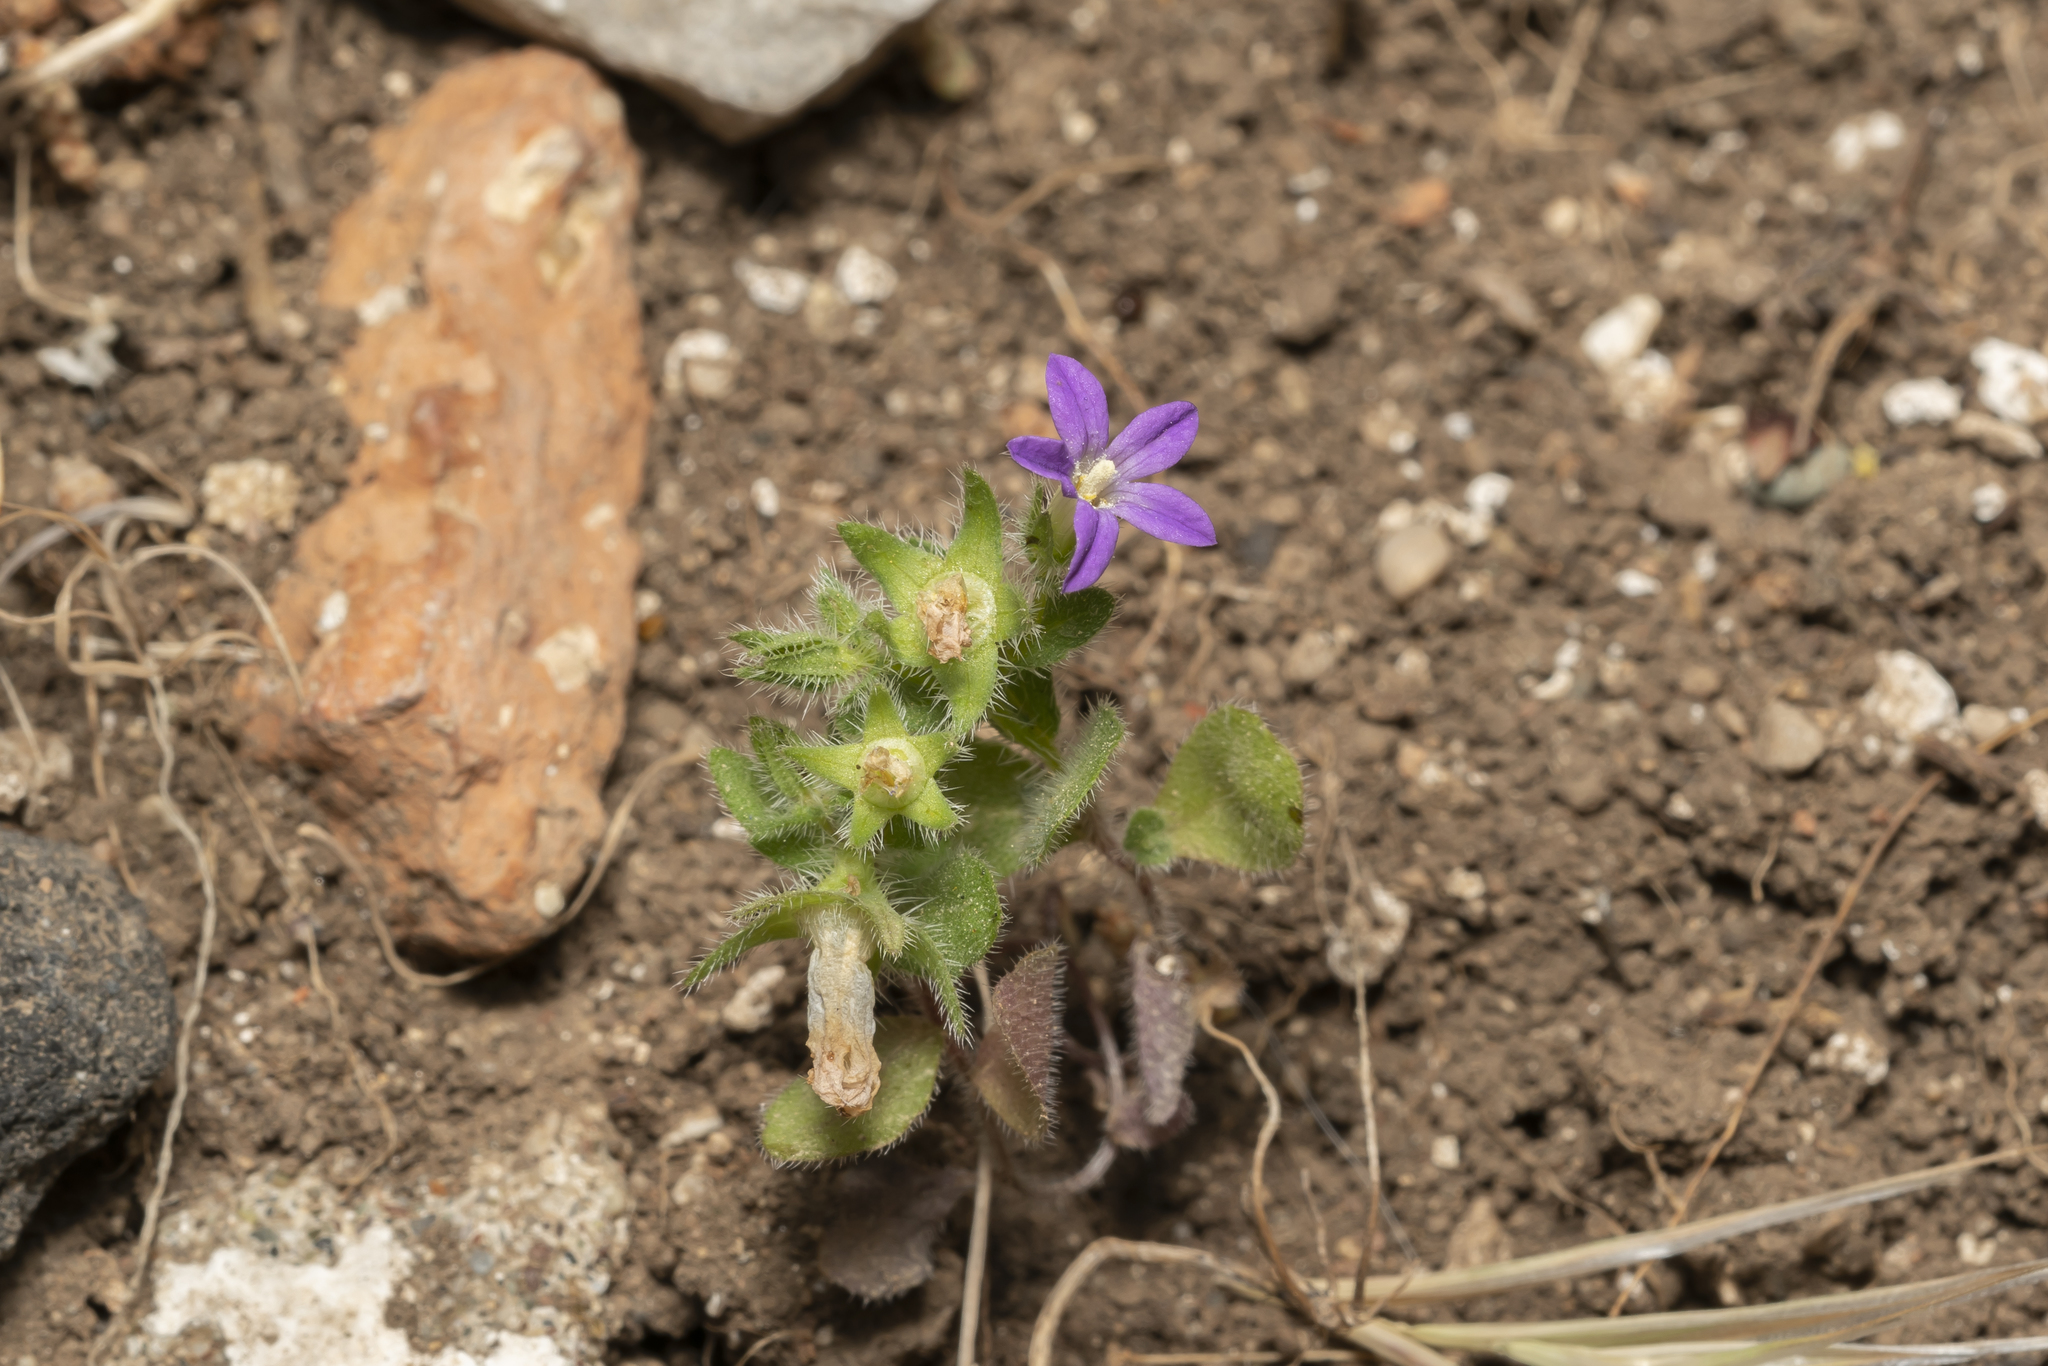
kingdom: Plantae
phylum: Tracheophyta
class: Magnoliopsida
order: Asterales
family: Campanulaceae
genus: Campanula
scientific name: Campanula rhodensis
